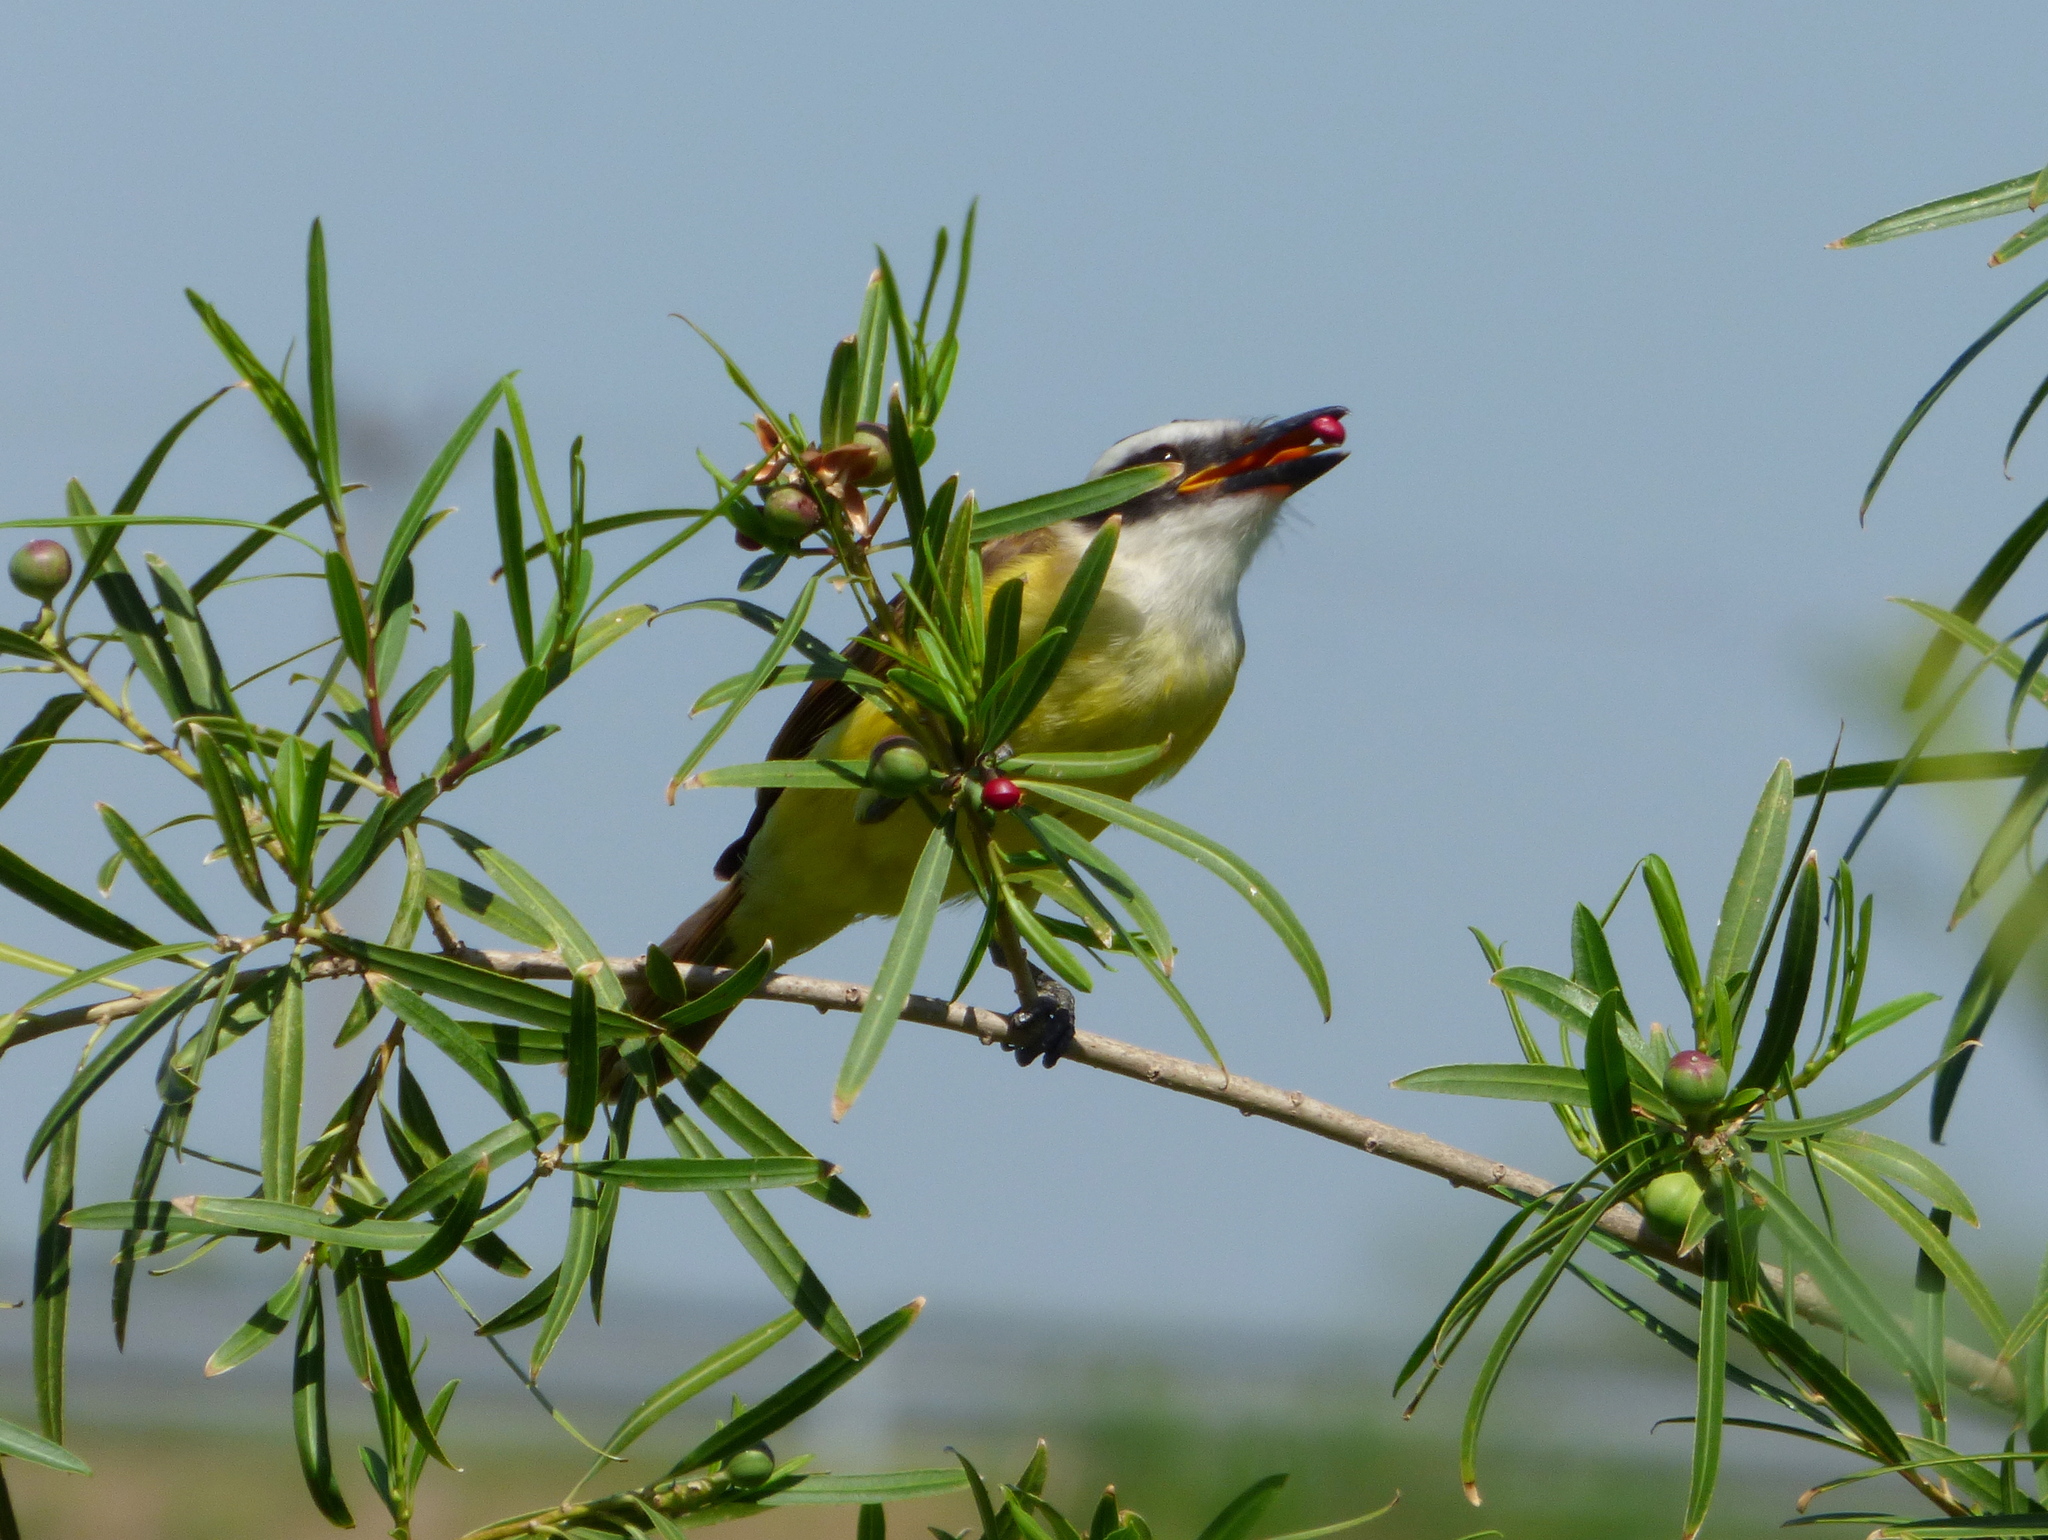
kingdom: Animalia
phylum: Chordata
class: Aves
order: Passeriformes
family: Tyrannidae
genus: Pitangus
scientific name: Pitangus sulphuratus
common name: Great kiskadee
